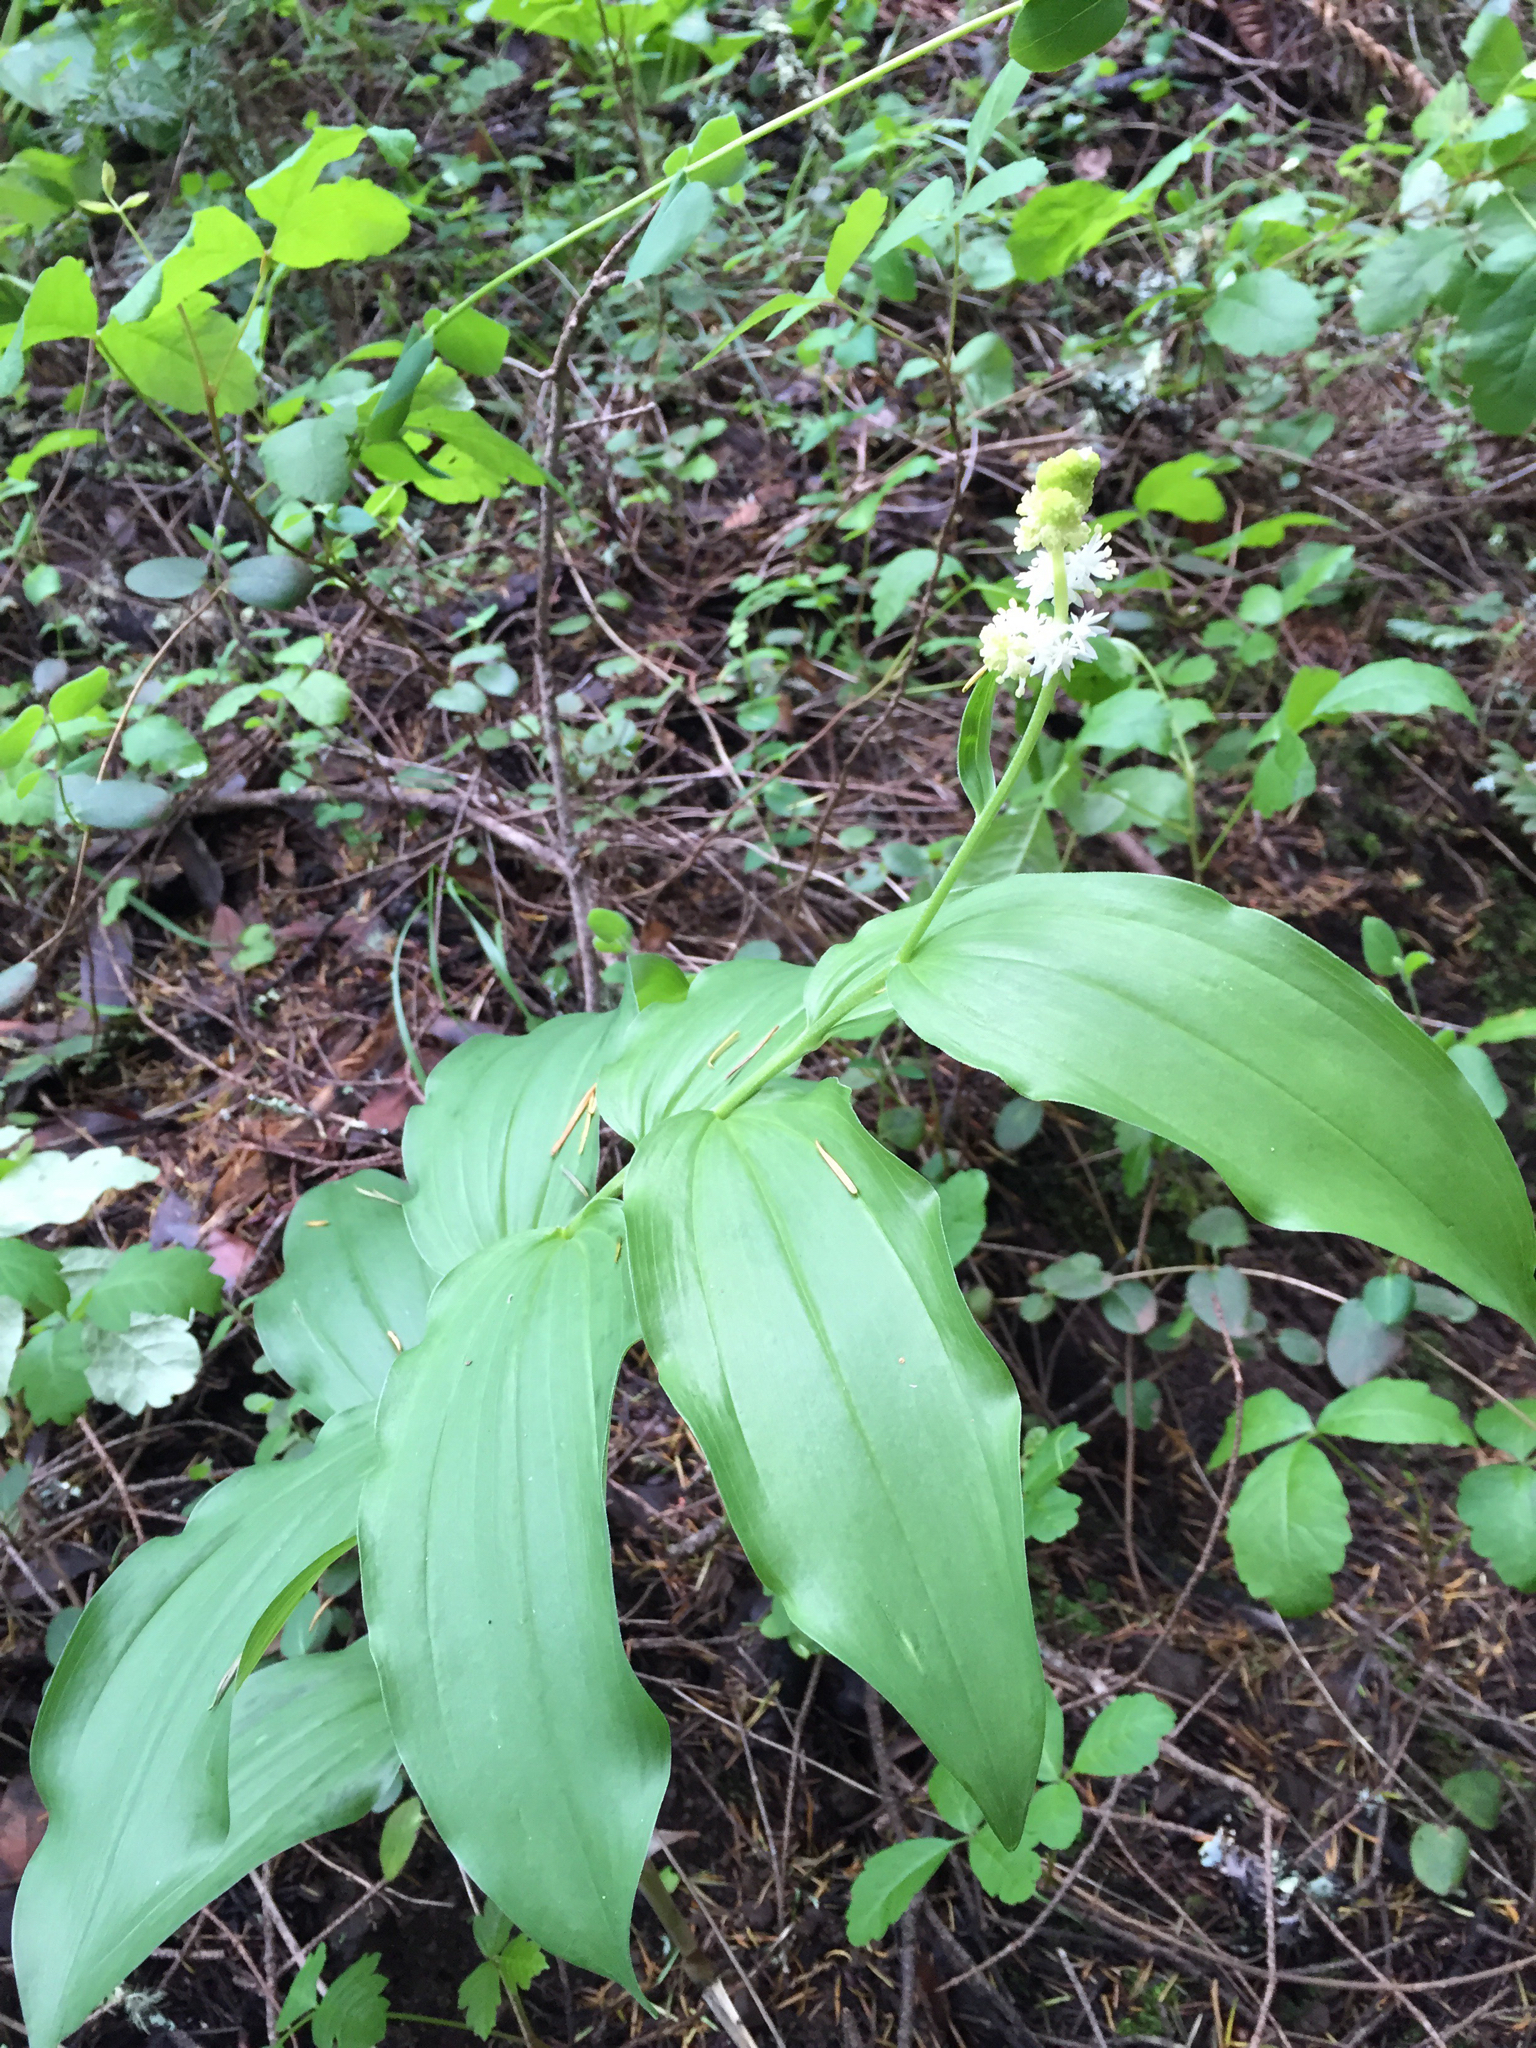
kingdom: Plantae
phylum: Tracheophyta
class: Liliopsida
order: Asparagales
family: Asparagaceae
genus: Maianthemum
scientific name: Maianthemum racemosum
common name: False spikenard
